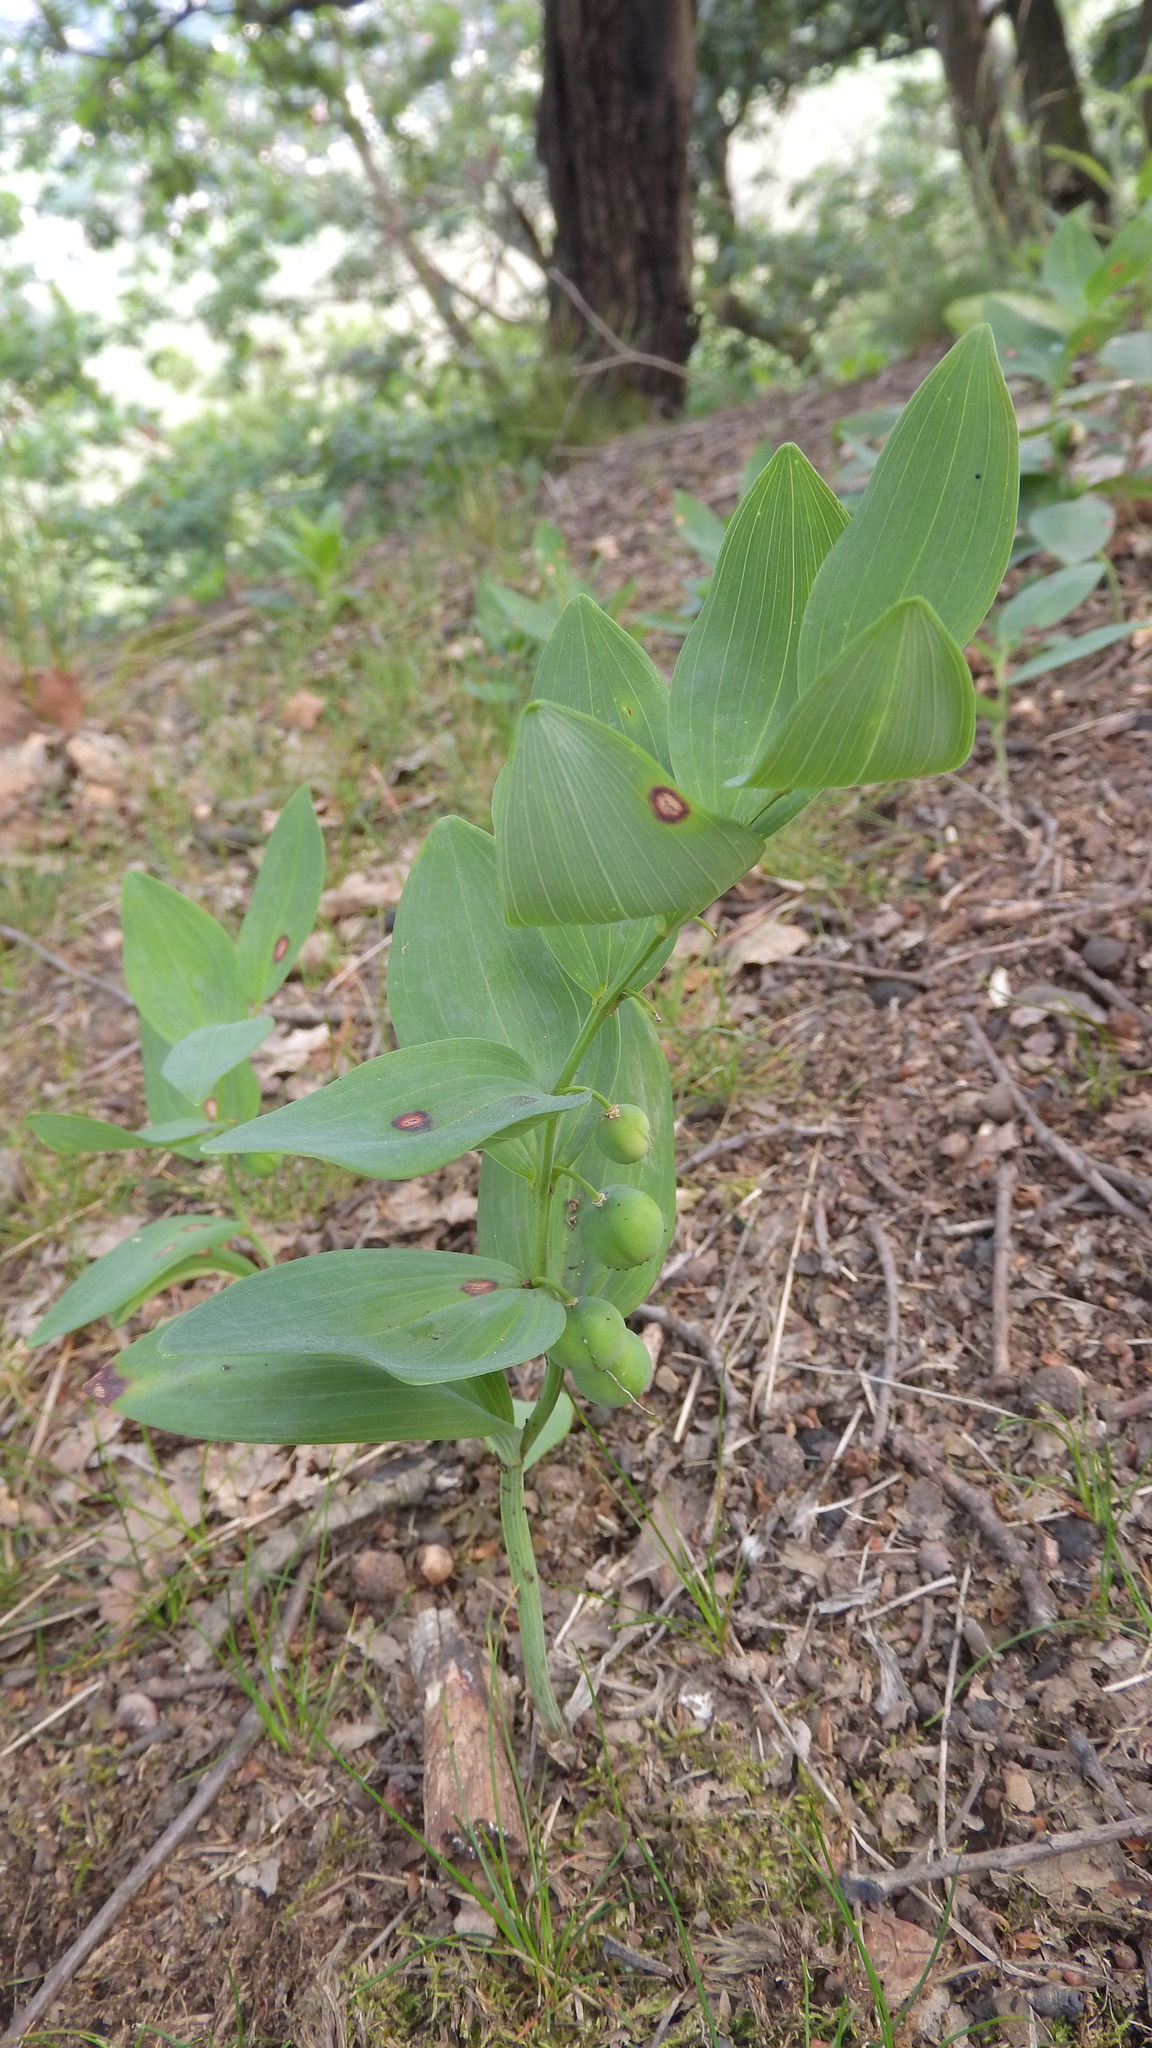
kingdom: Plantae
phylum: Tracheophyta
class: Liliopsida
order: Asparagales
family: Asparagaceae
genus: Polygonatum
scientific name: Polygonatum odoratum
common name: Angular solomon's-seal
